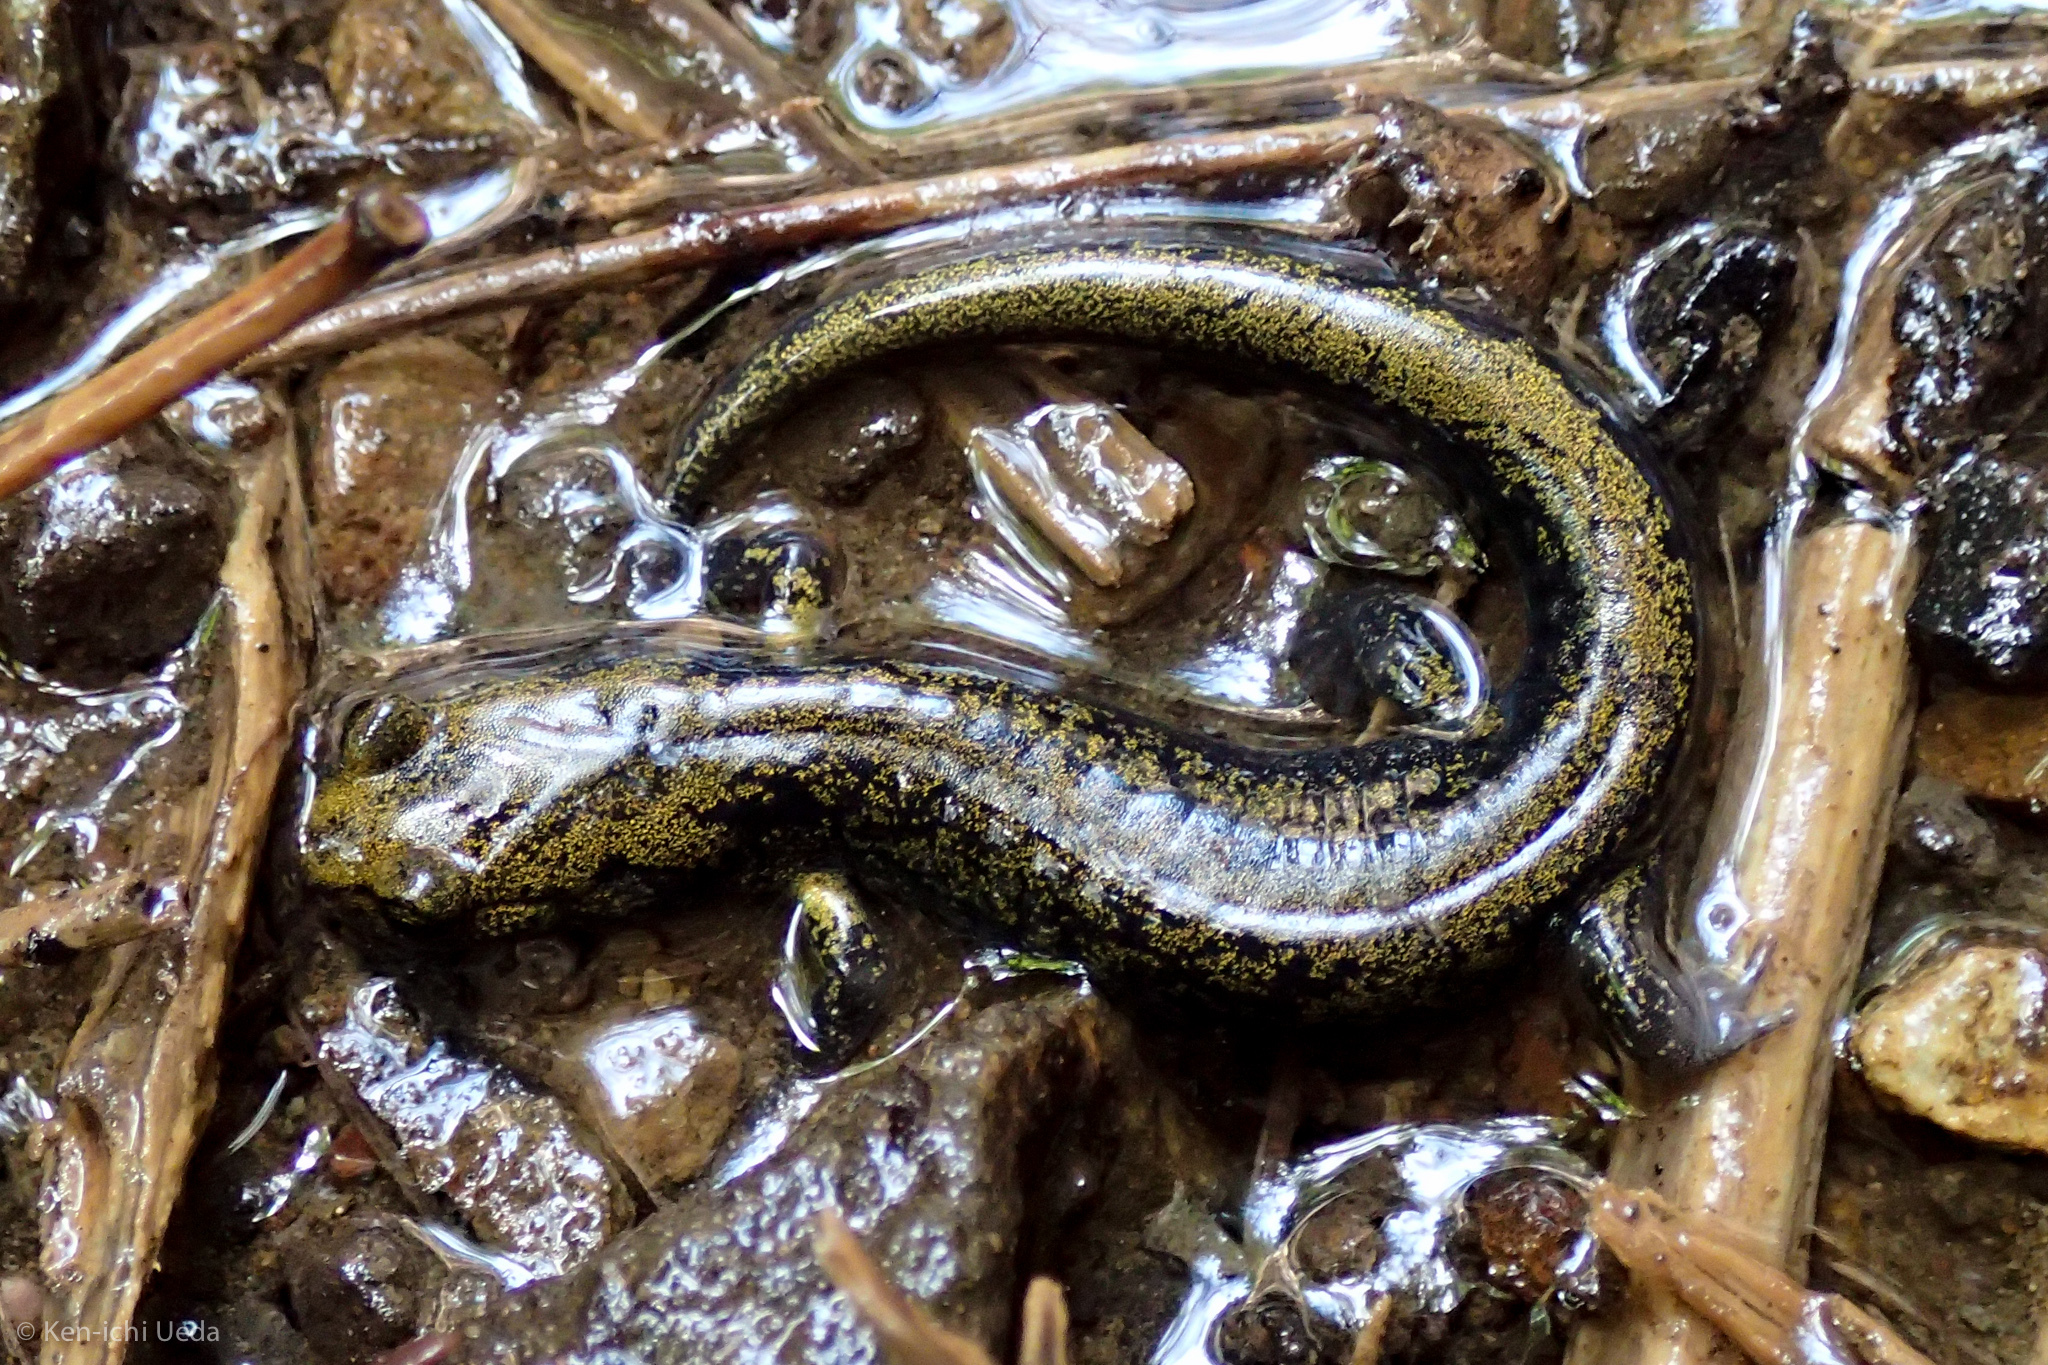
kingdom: Animalia
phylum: Chordata
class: Amphibia
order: Caudata
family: Plethodontidae
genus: Aneides
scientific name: Aneides flavipunctatus
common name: Black salamander
